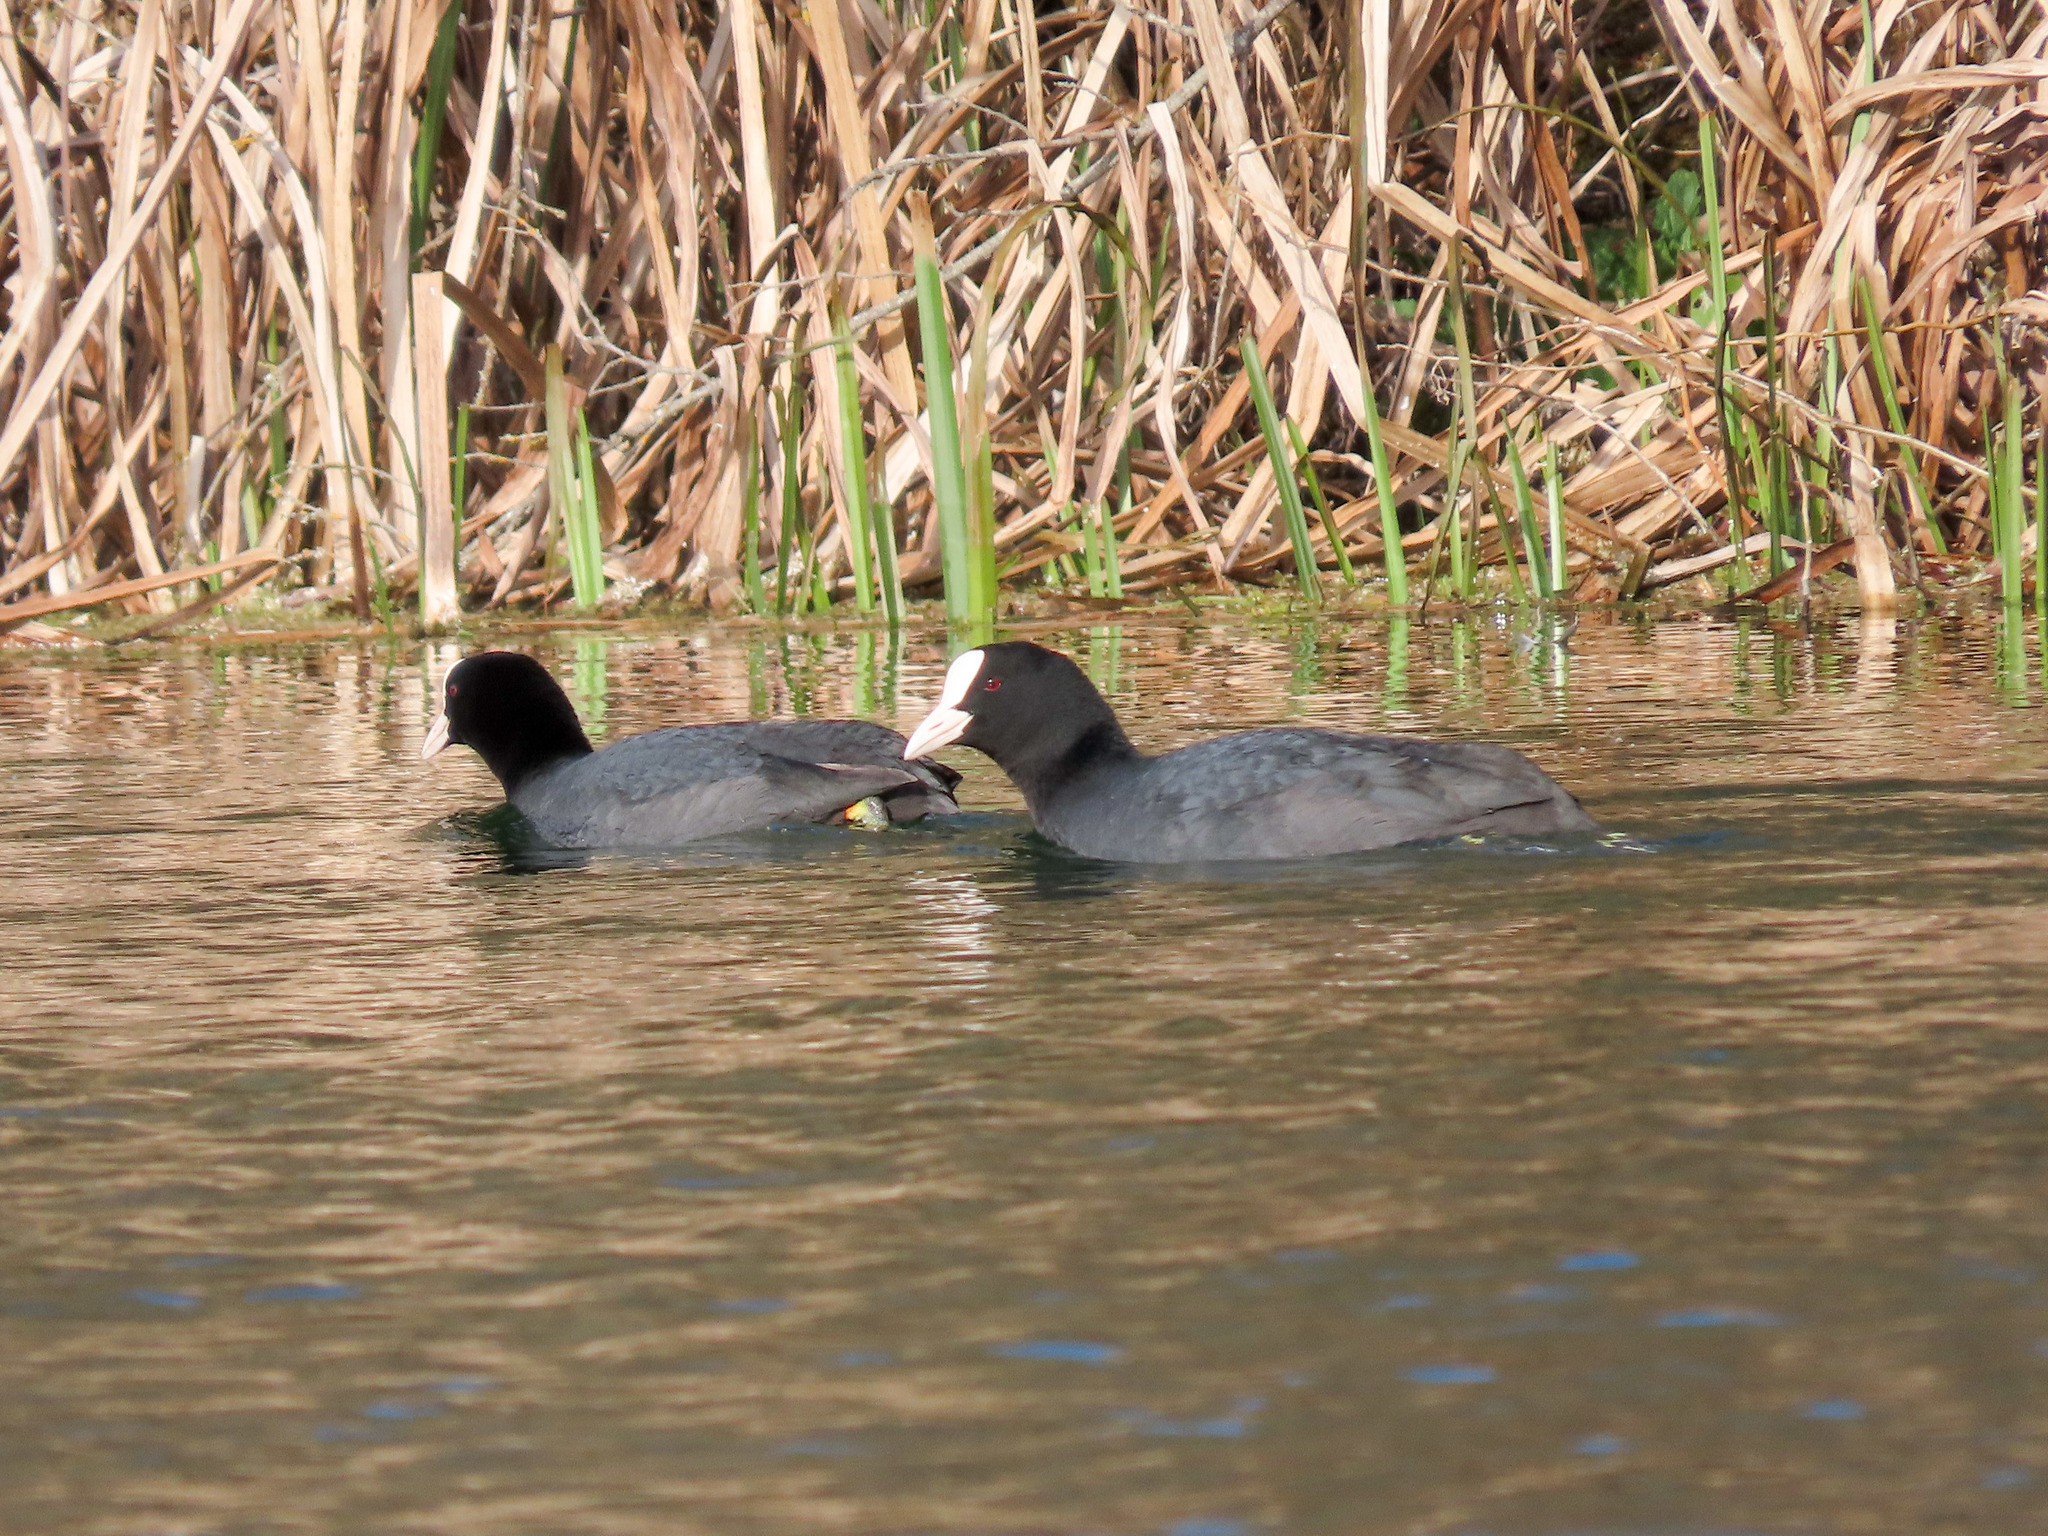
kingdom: Animalia
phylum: Chordata
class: Aves
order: Gruiformes
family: Rallidae
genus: Fulica
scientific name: Fulica atra
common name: Eurasian coot
